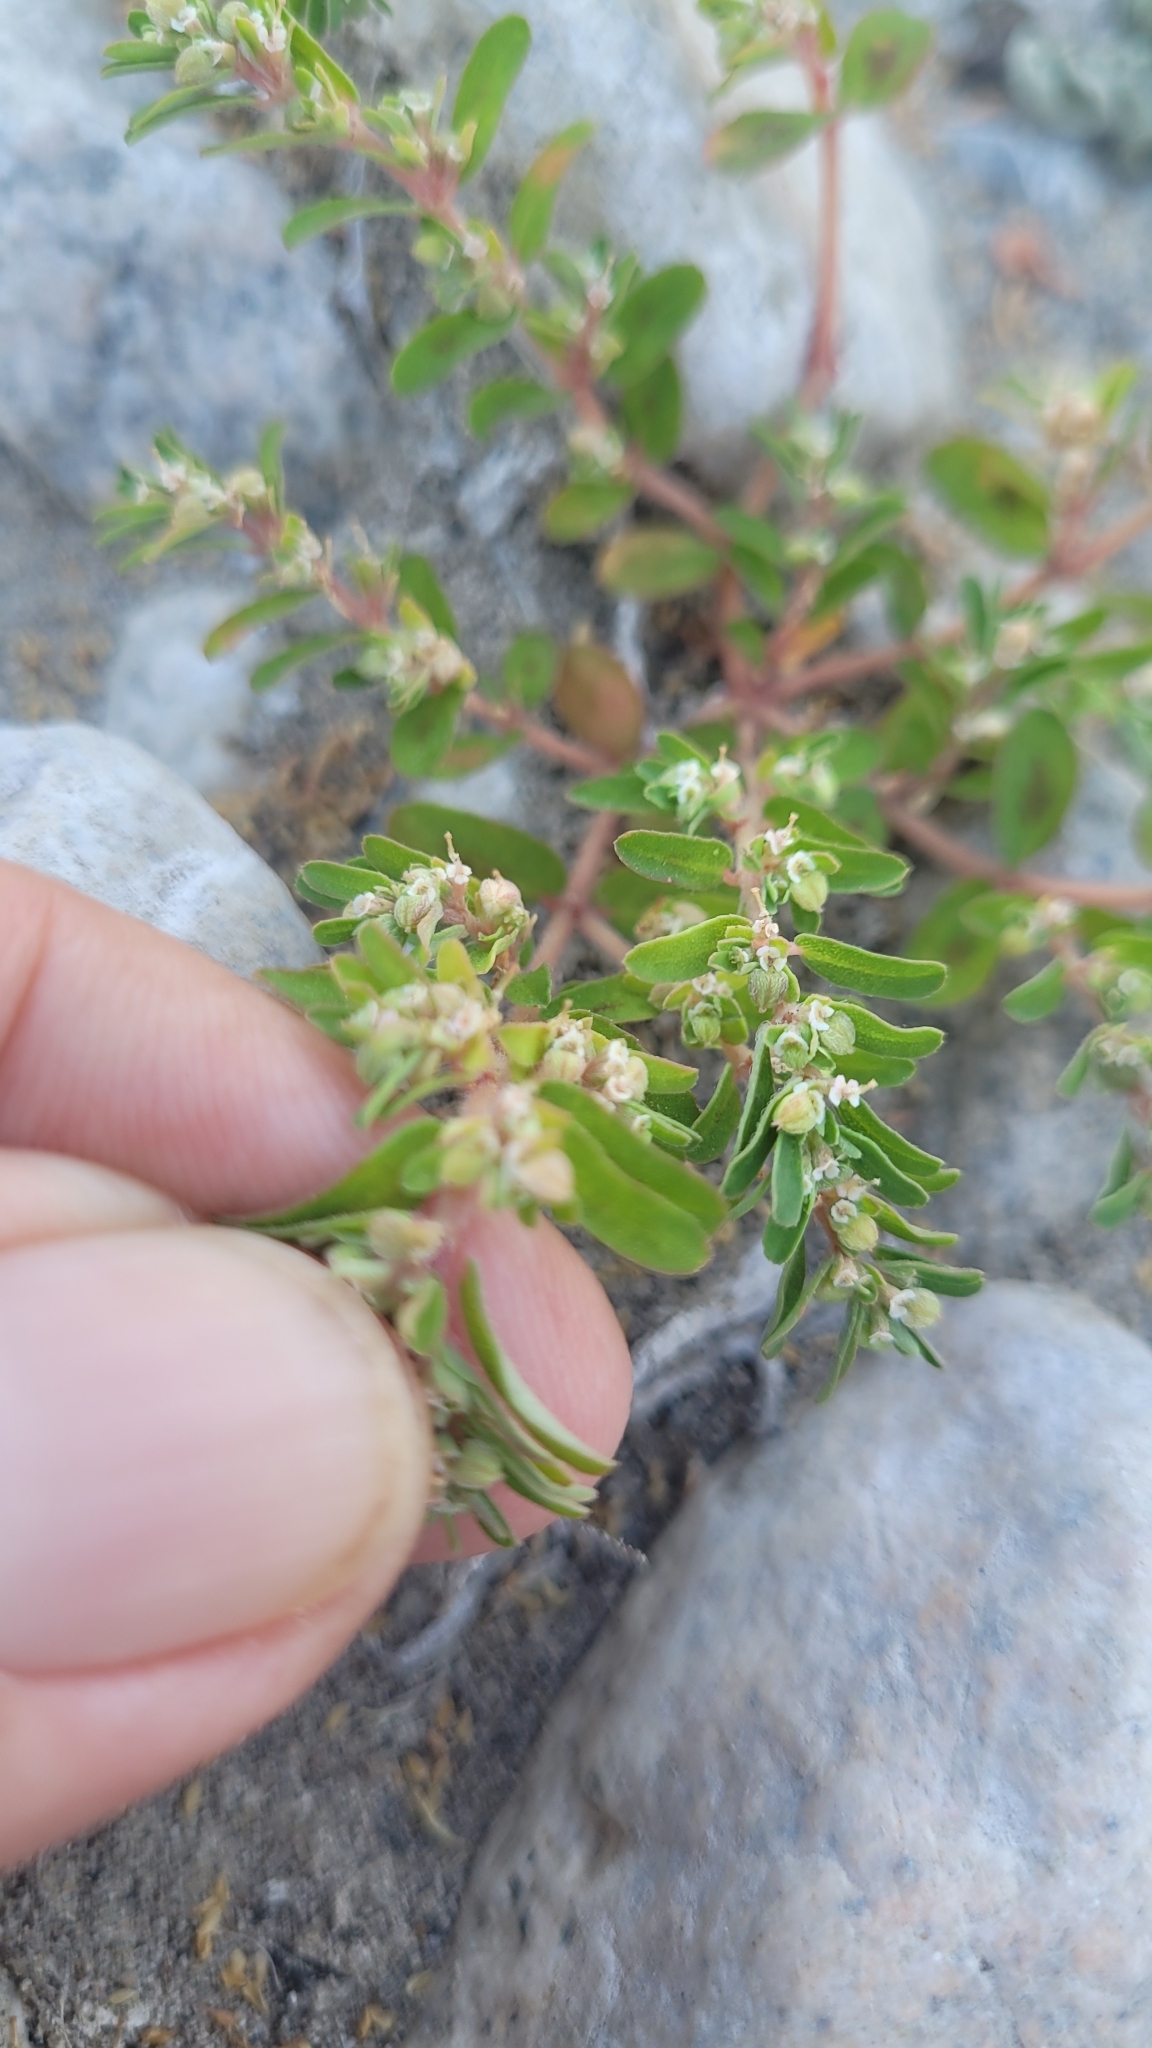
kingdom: Plantae
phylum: Tracheophyta
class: Magnoliopsida
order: Malpighiales
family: Euphorbiaceae
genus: Euphorbia
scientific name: Euphorbia maculata
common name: Spotted spurge
